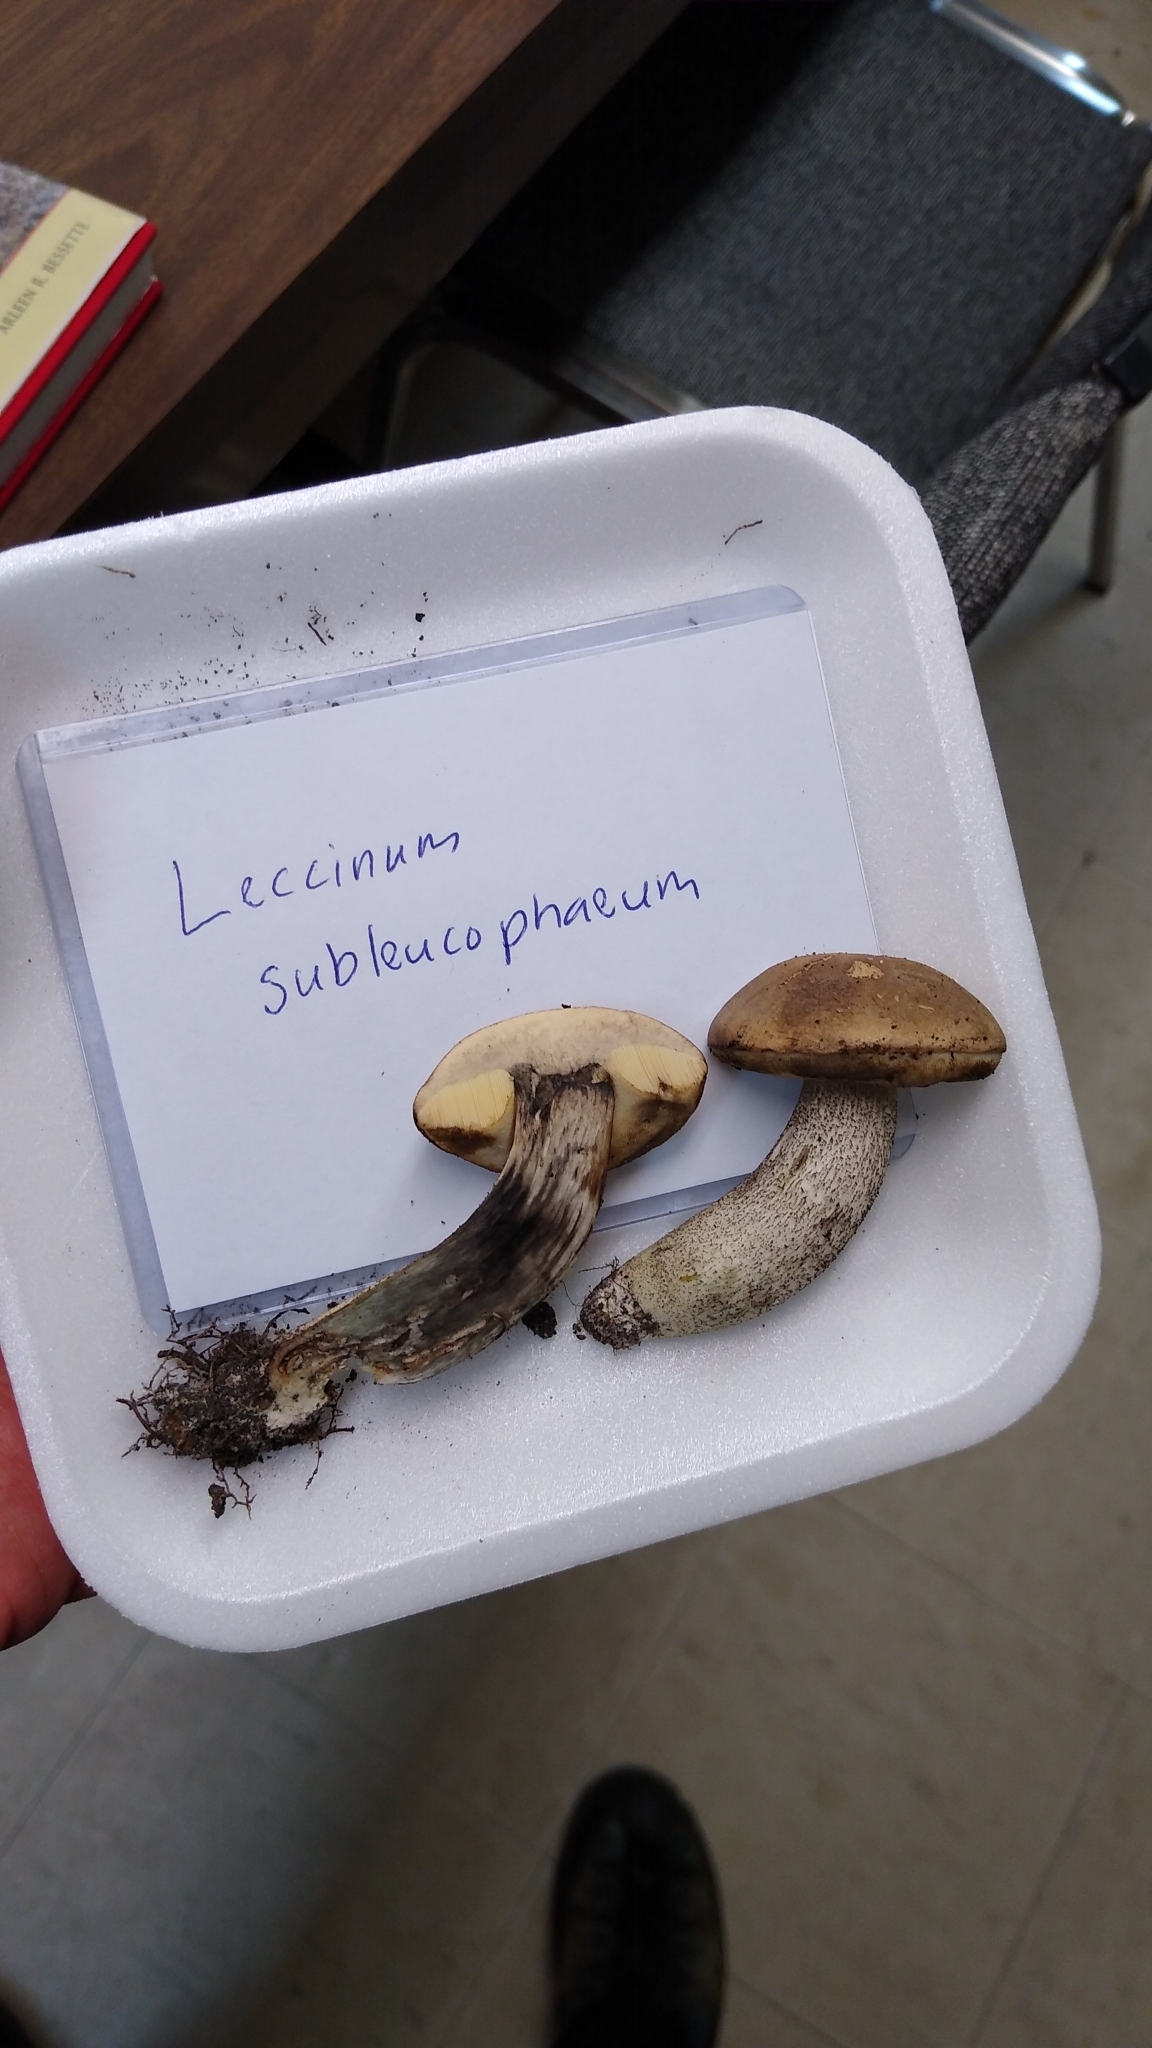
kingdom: Fungi
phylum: Basidiomycota
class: Agaricomycetes
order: Boletales
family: Boletaceae
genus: Leccinum
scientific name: Leccinum subleucophaeum
